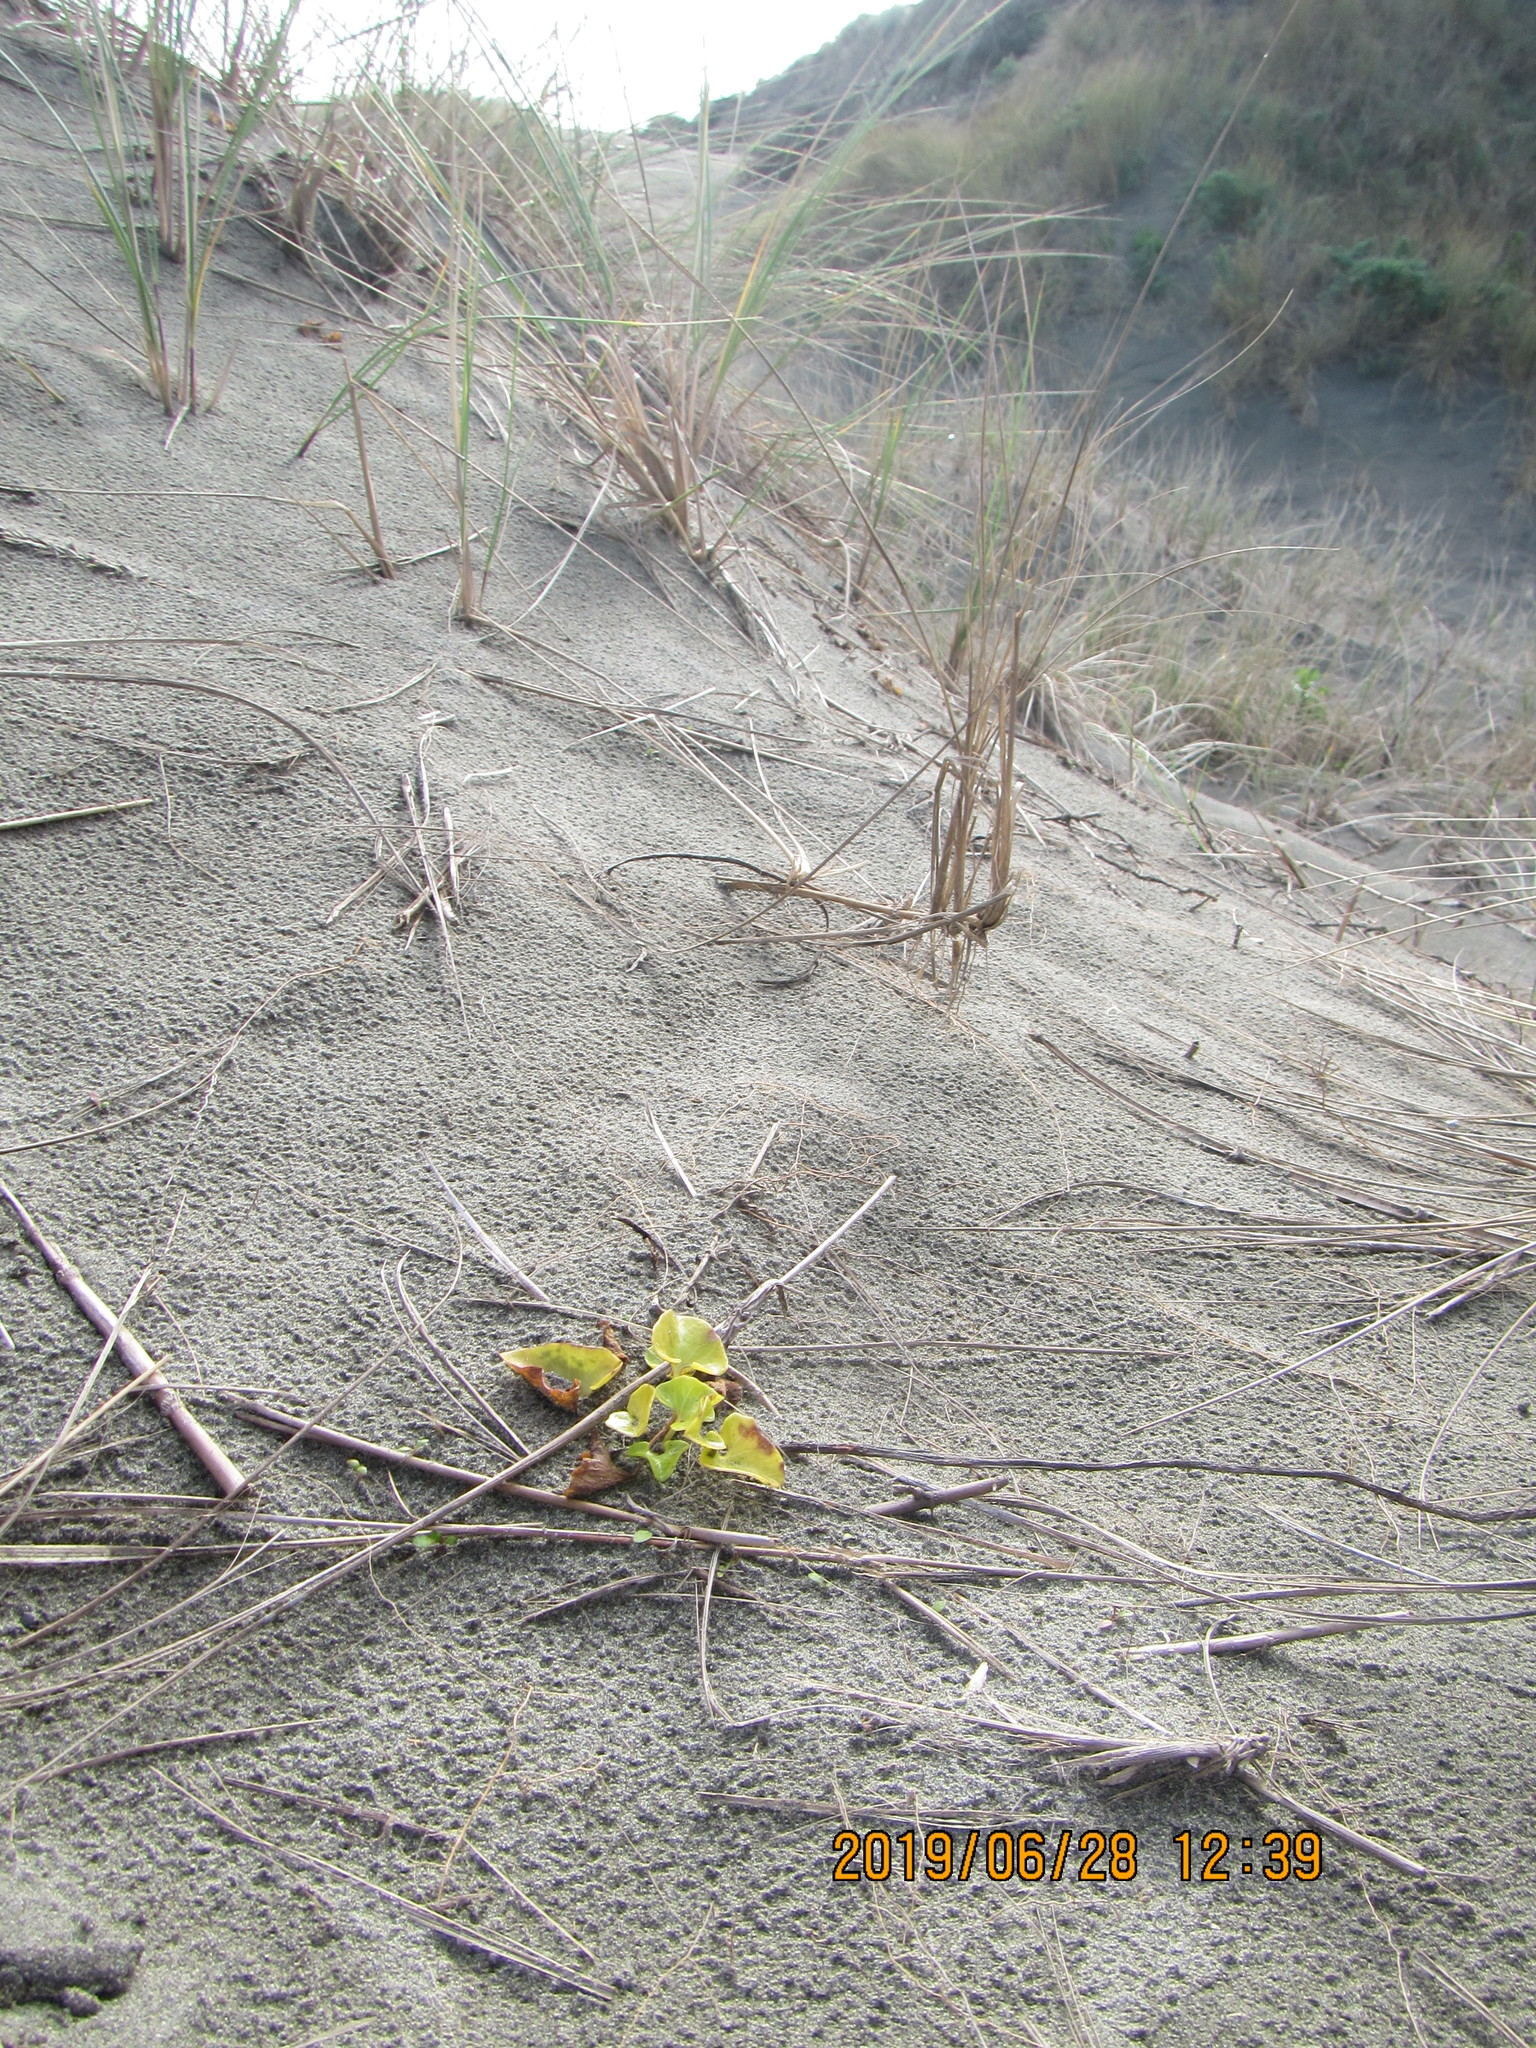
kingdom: Plantae
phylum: Tracheophyta
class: Magnoliopsida
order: Solanales
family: Convolvulaceae
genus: Calystegia
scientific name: Calystegia soldanella
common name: Sea bindweed
